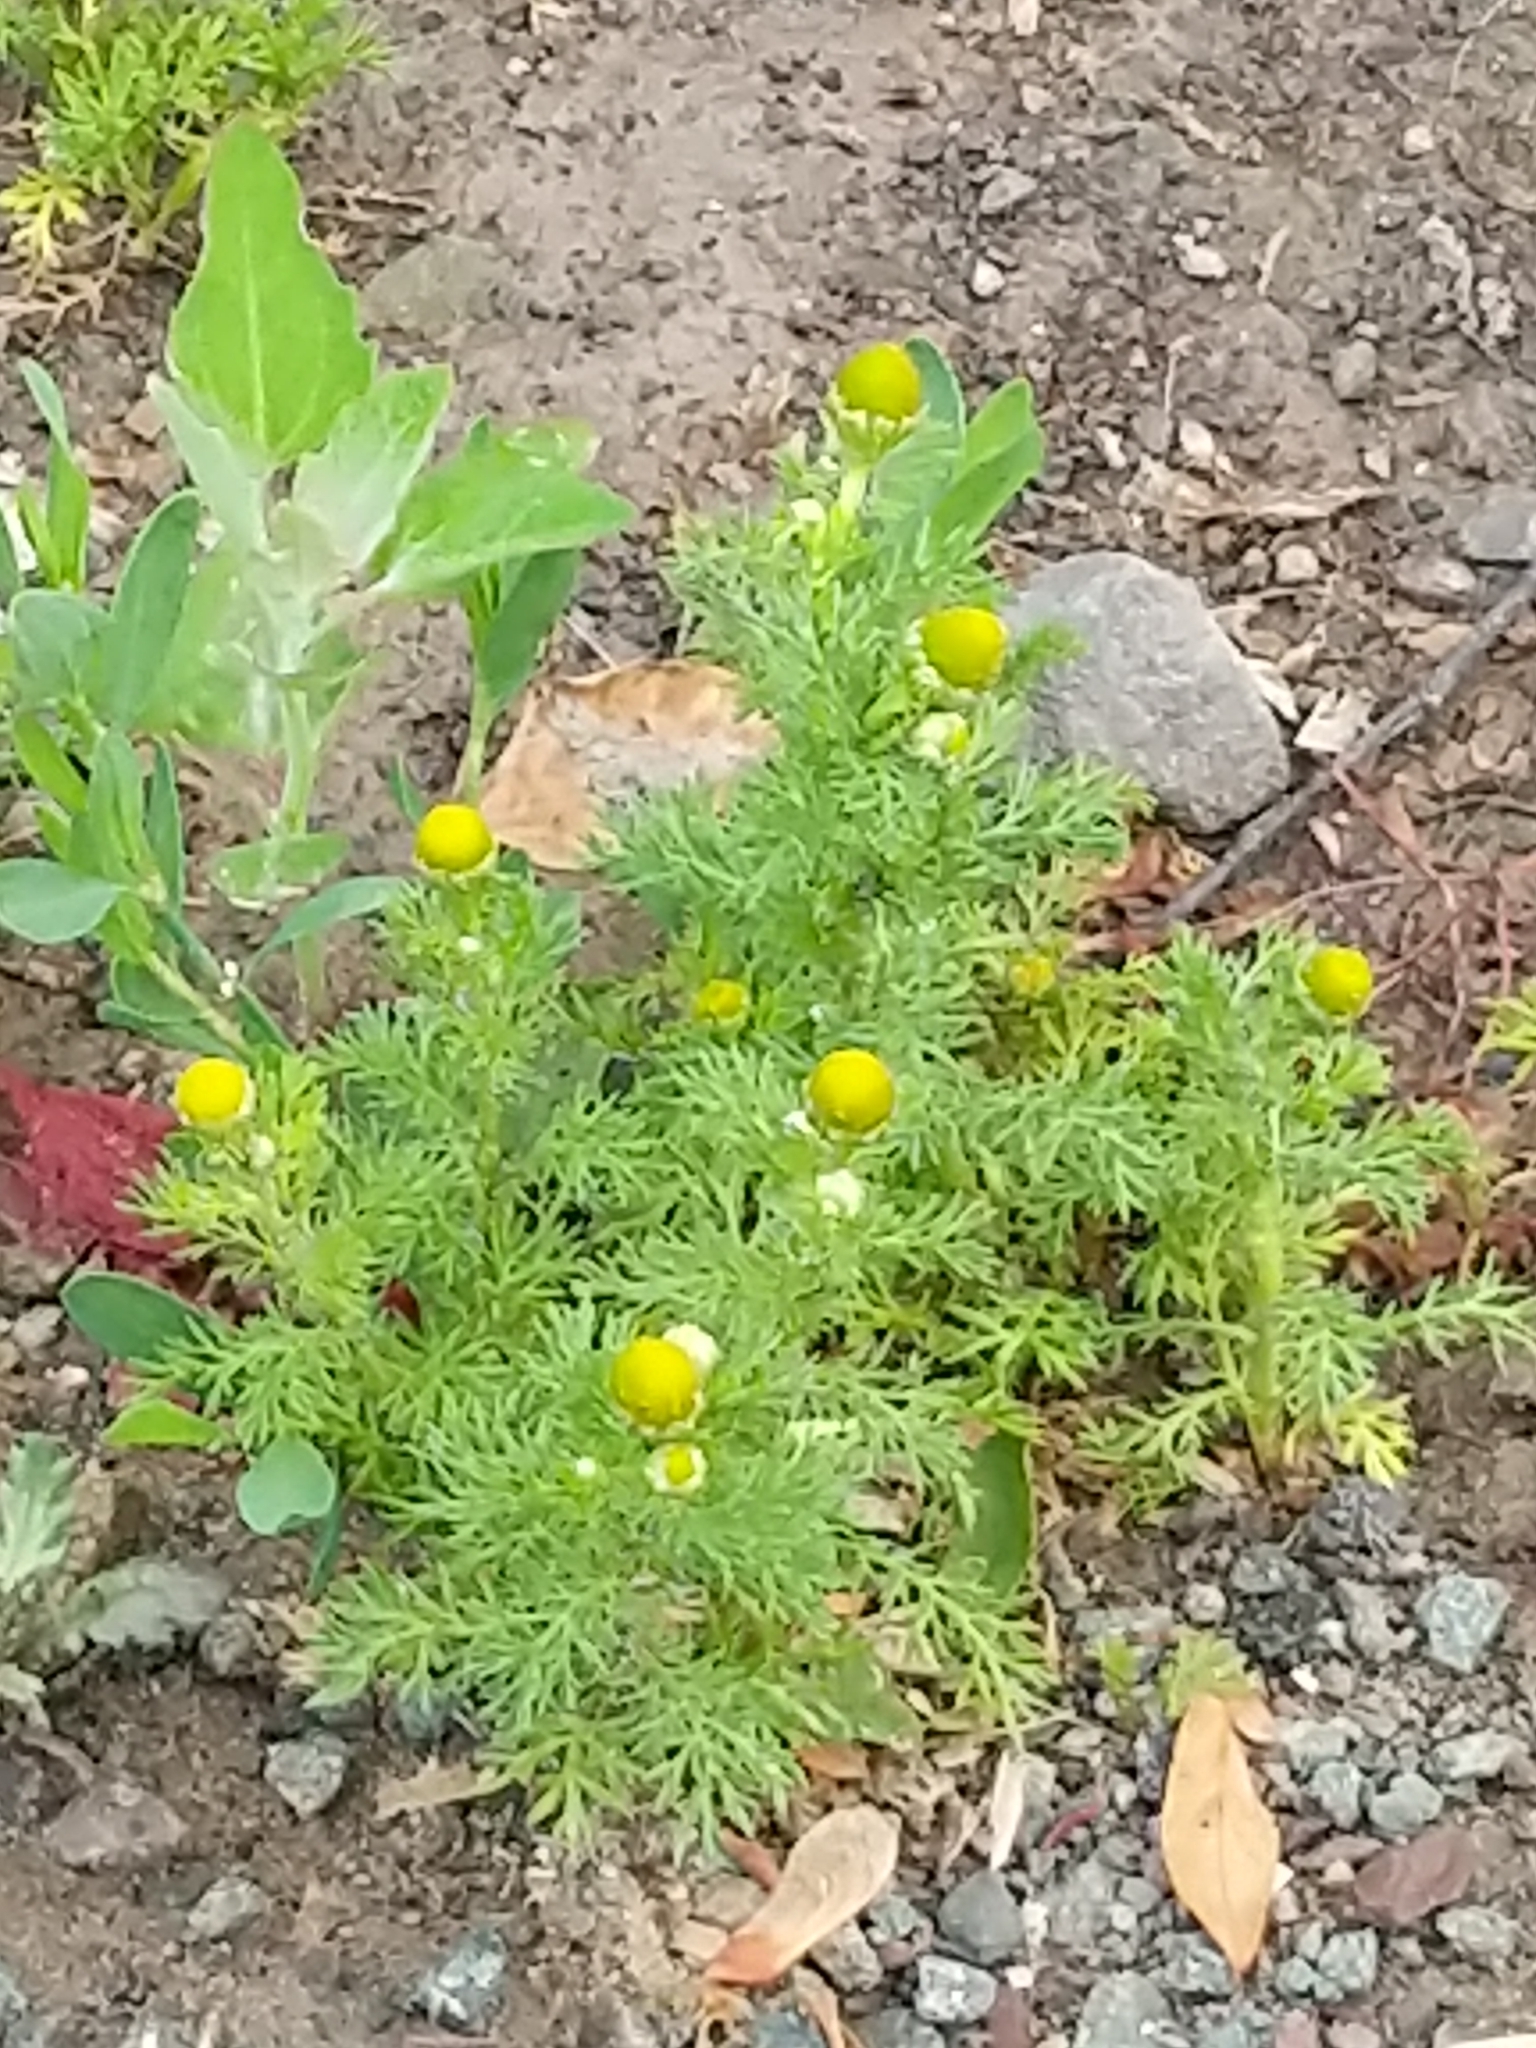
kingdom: Plantae
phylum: Tracheophyta
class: Magnoliopsida
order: Asterales
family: Asteraceae
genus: Matricaria
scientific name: Matricaria discoidea
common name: Disc mayweed
